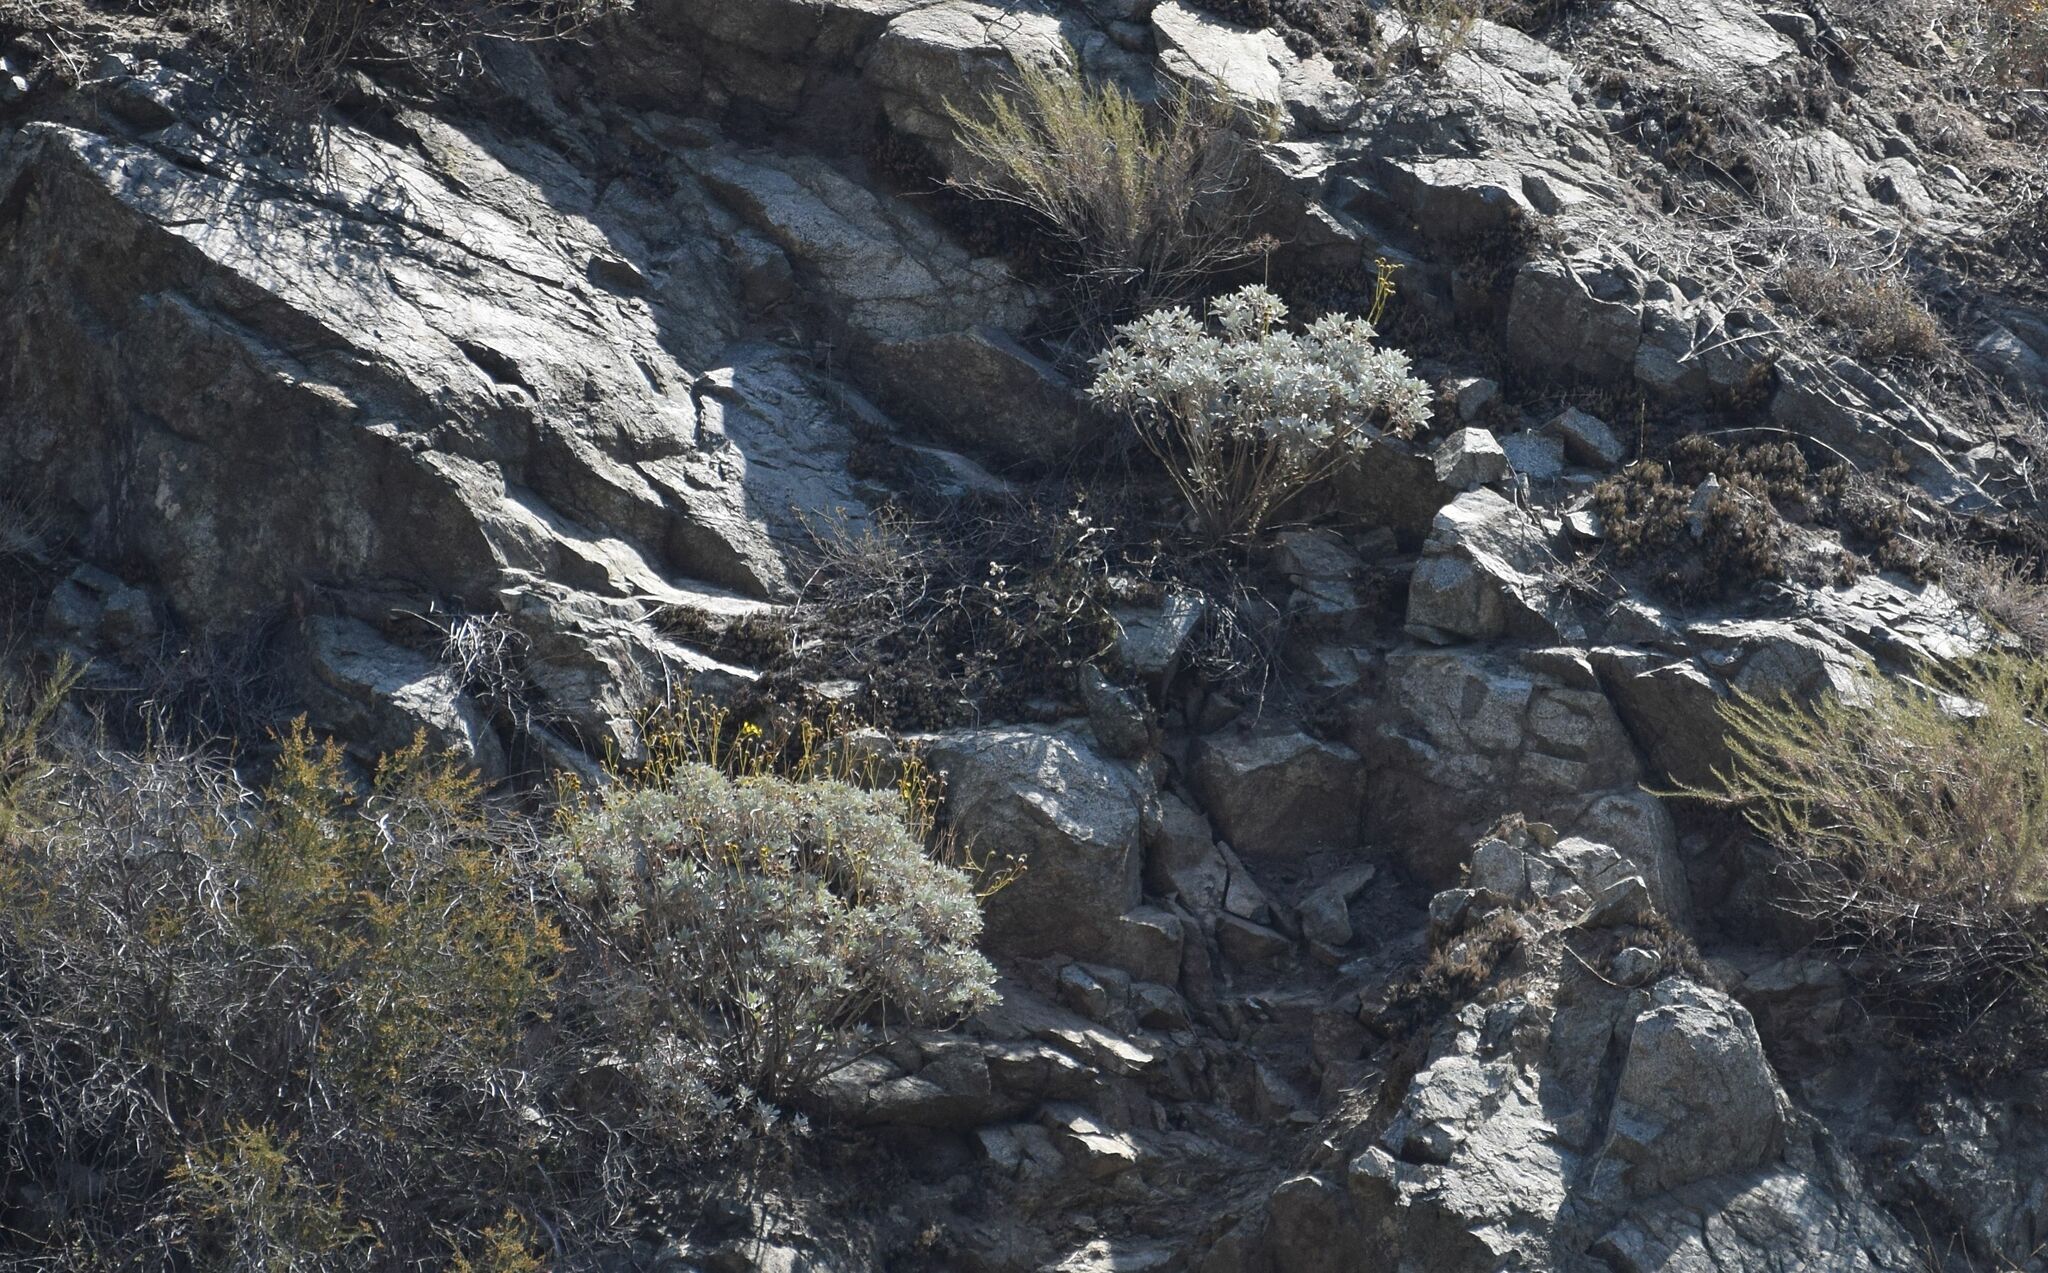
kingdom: Plantae
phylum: Tracheophyta
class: Magnoliopsida
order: Asterales
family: Asteraceae
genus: Encelia
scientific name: Encelia farinosa
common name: Brittlebush
